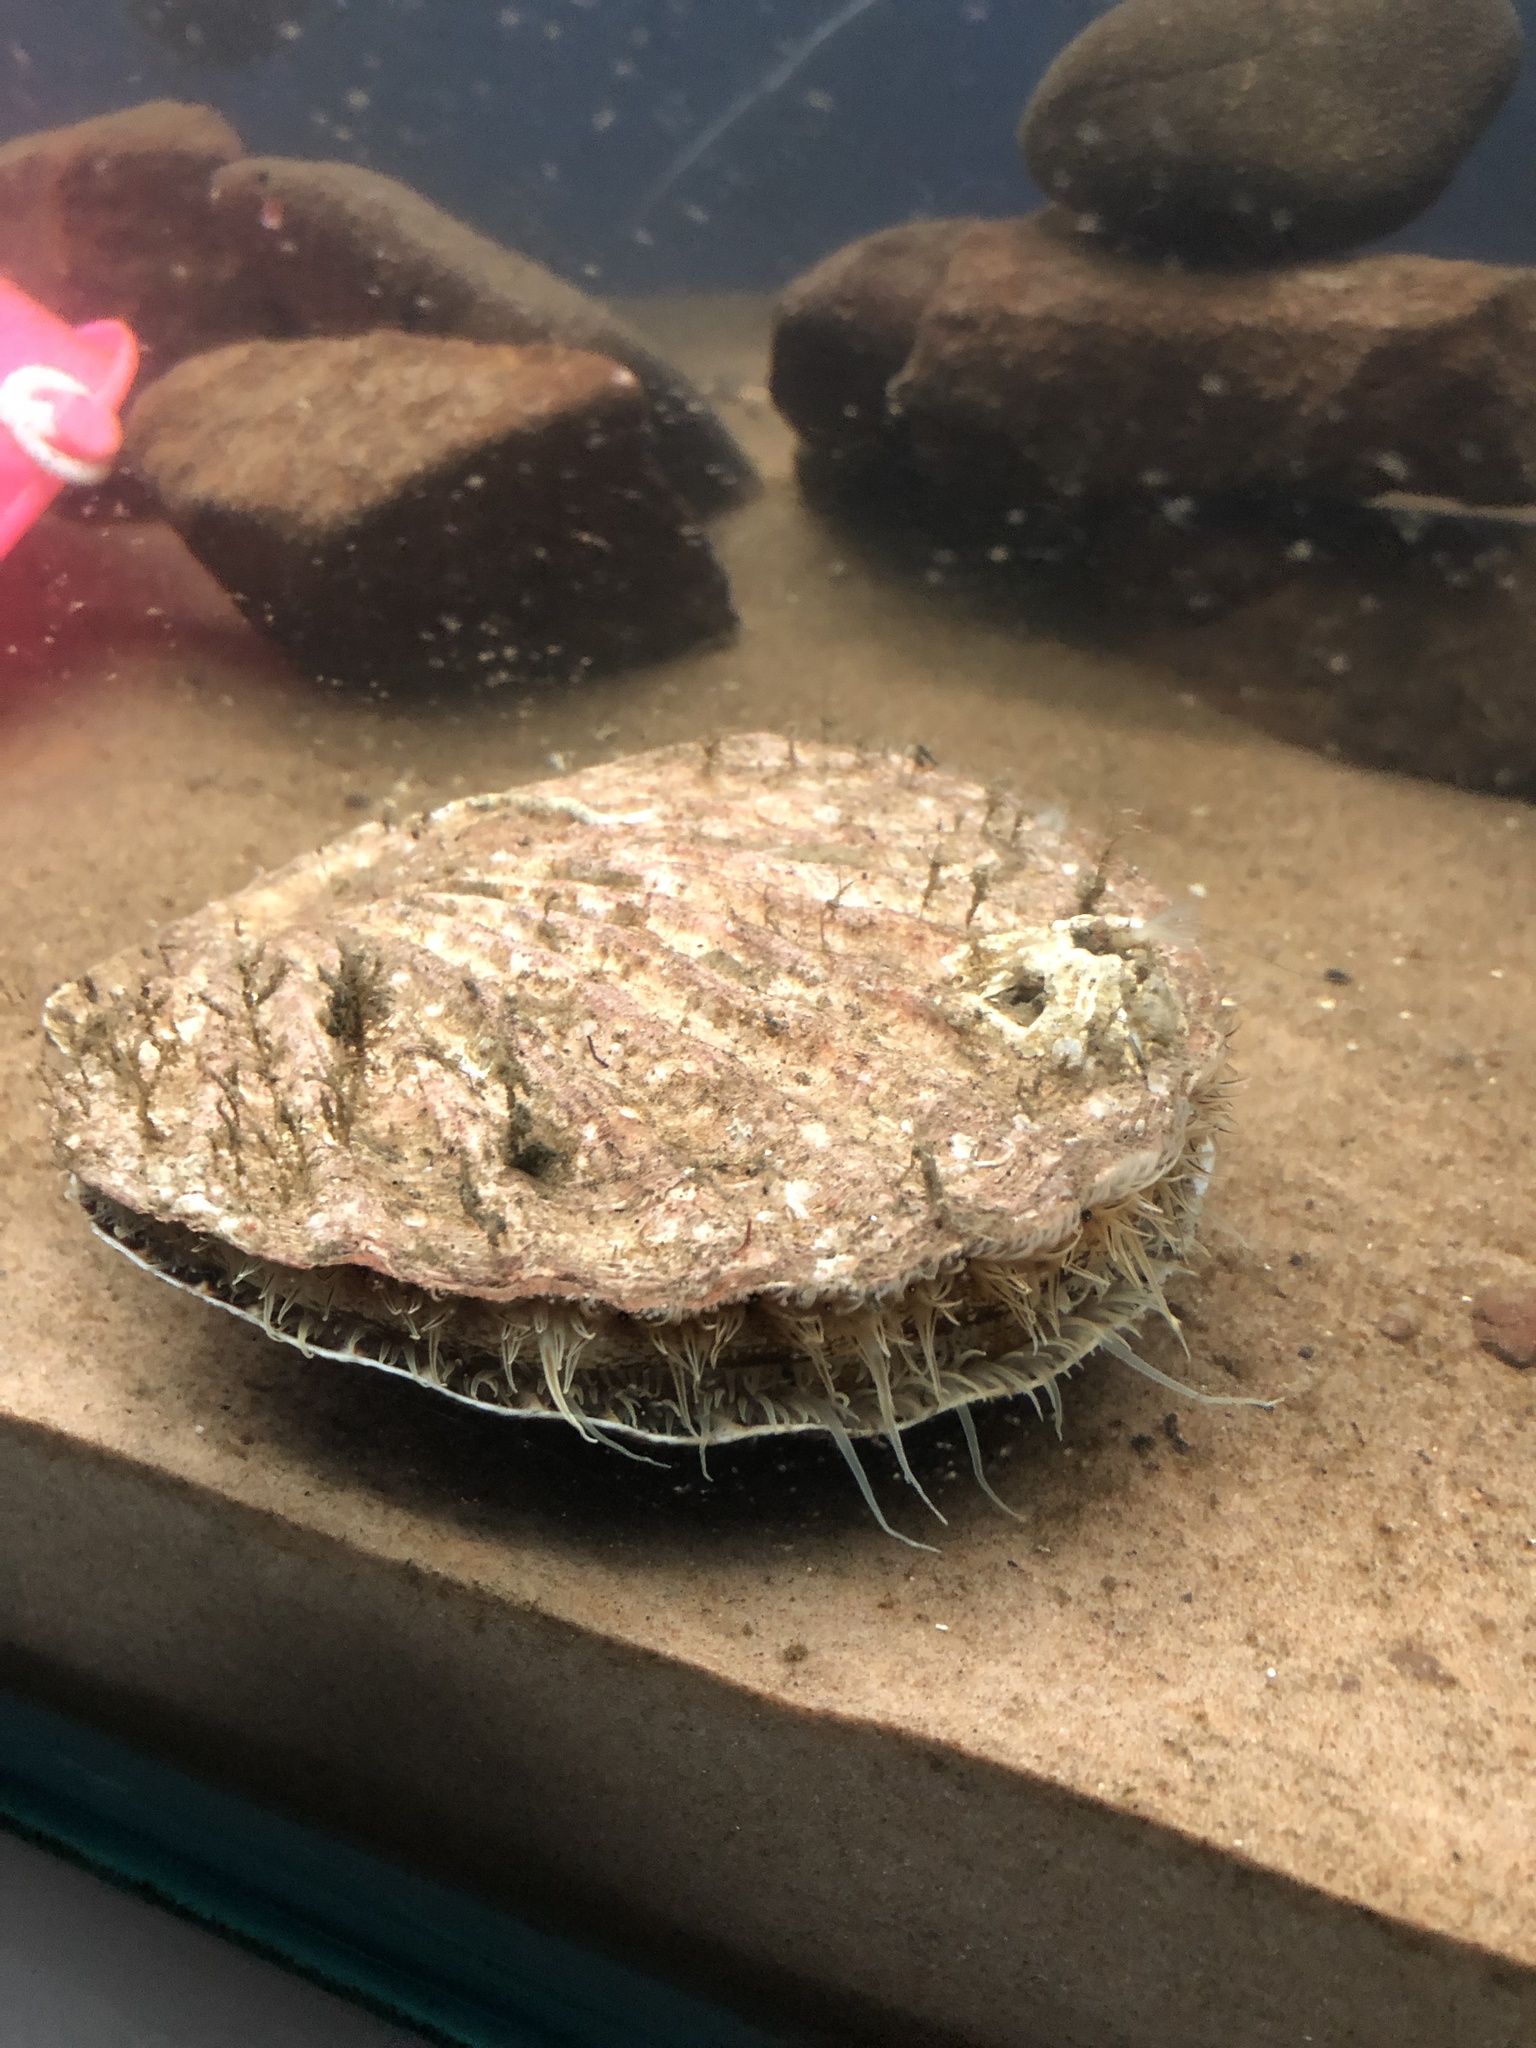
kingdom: Animalia
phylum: Mollusca
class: Bivalvia
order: Pectinida
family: Pectinidae
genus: Pecten
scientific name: Pecten maximus
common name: Great scallop
